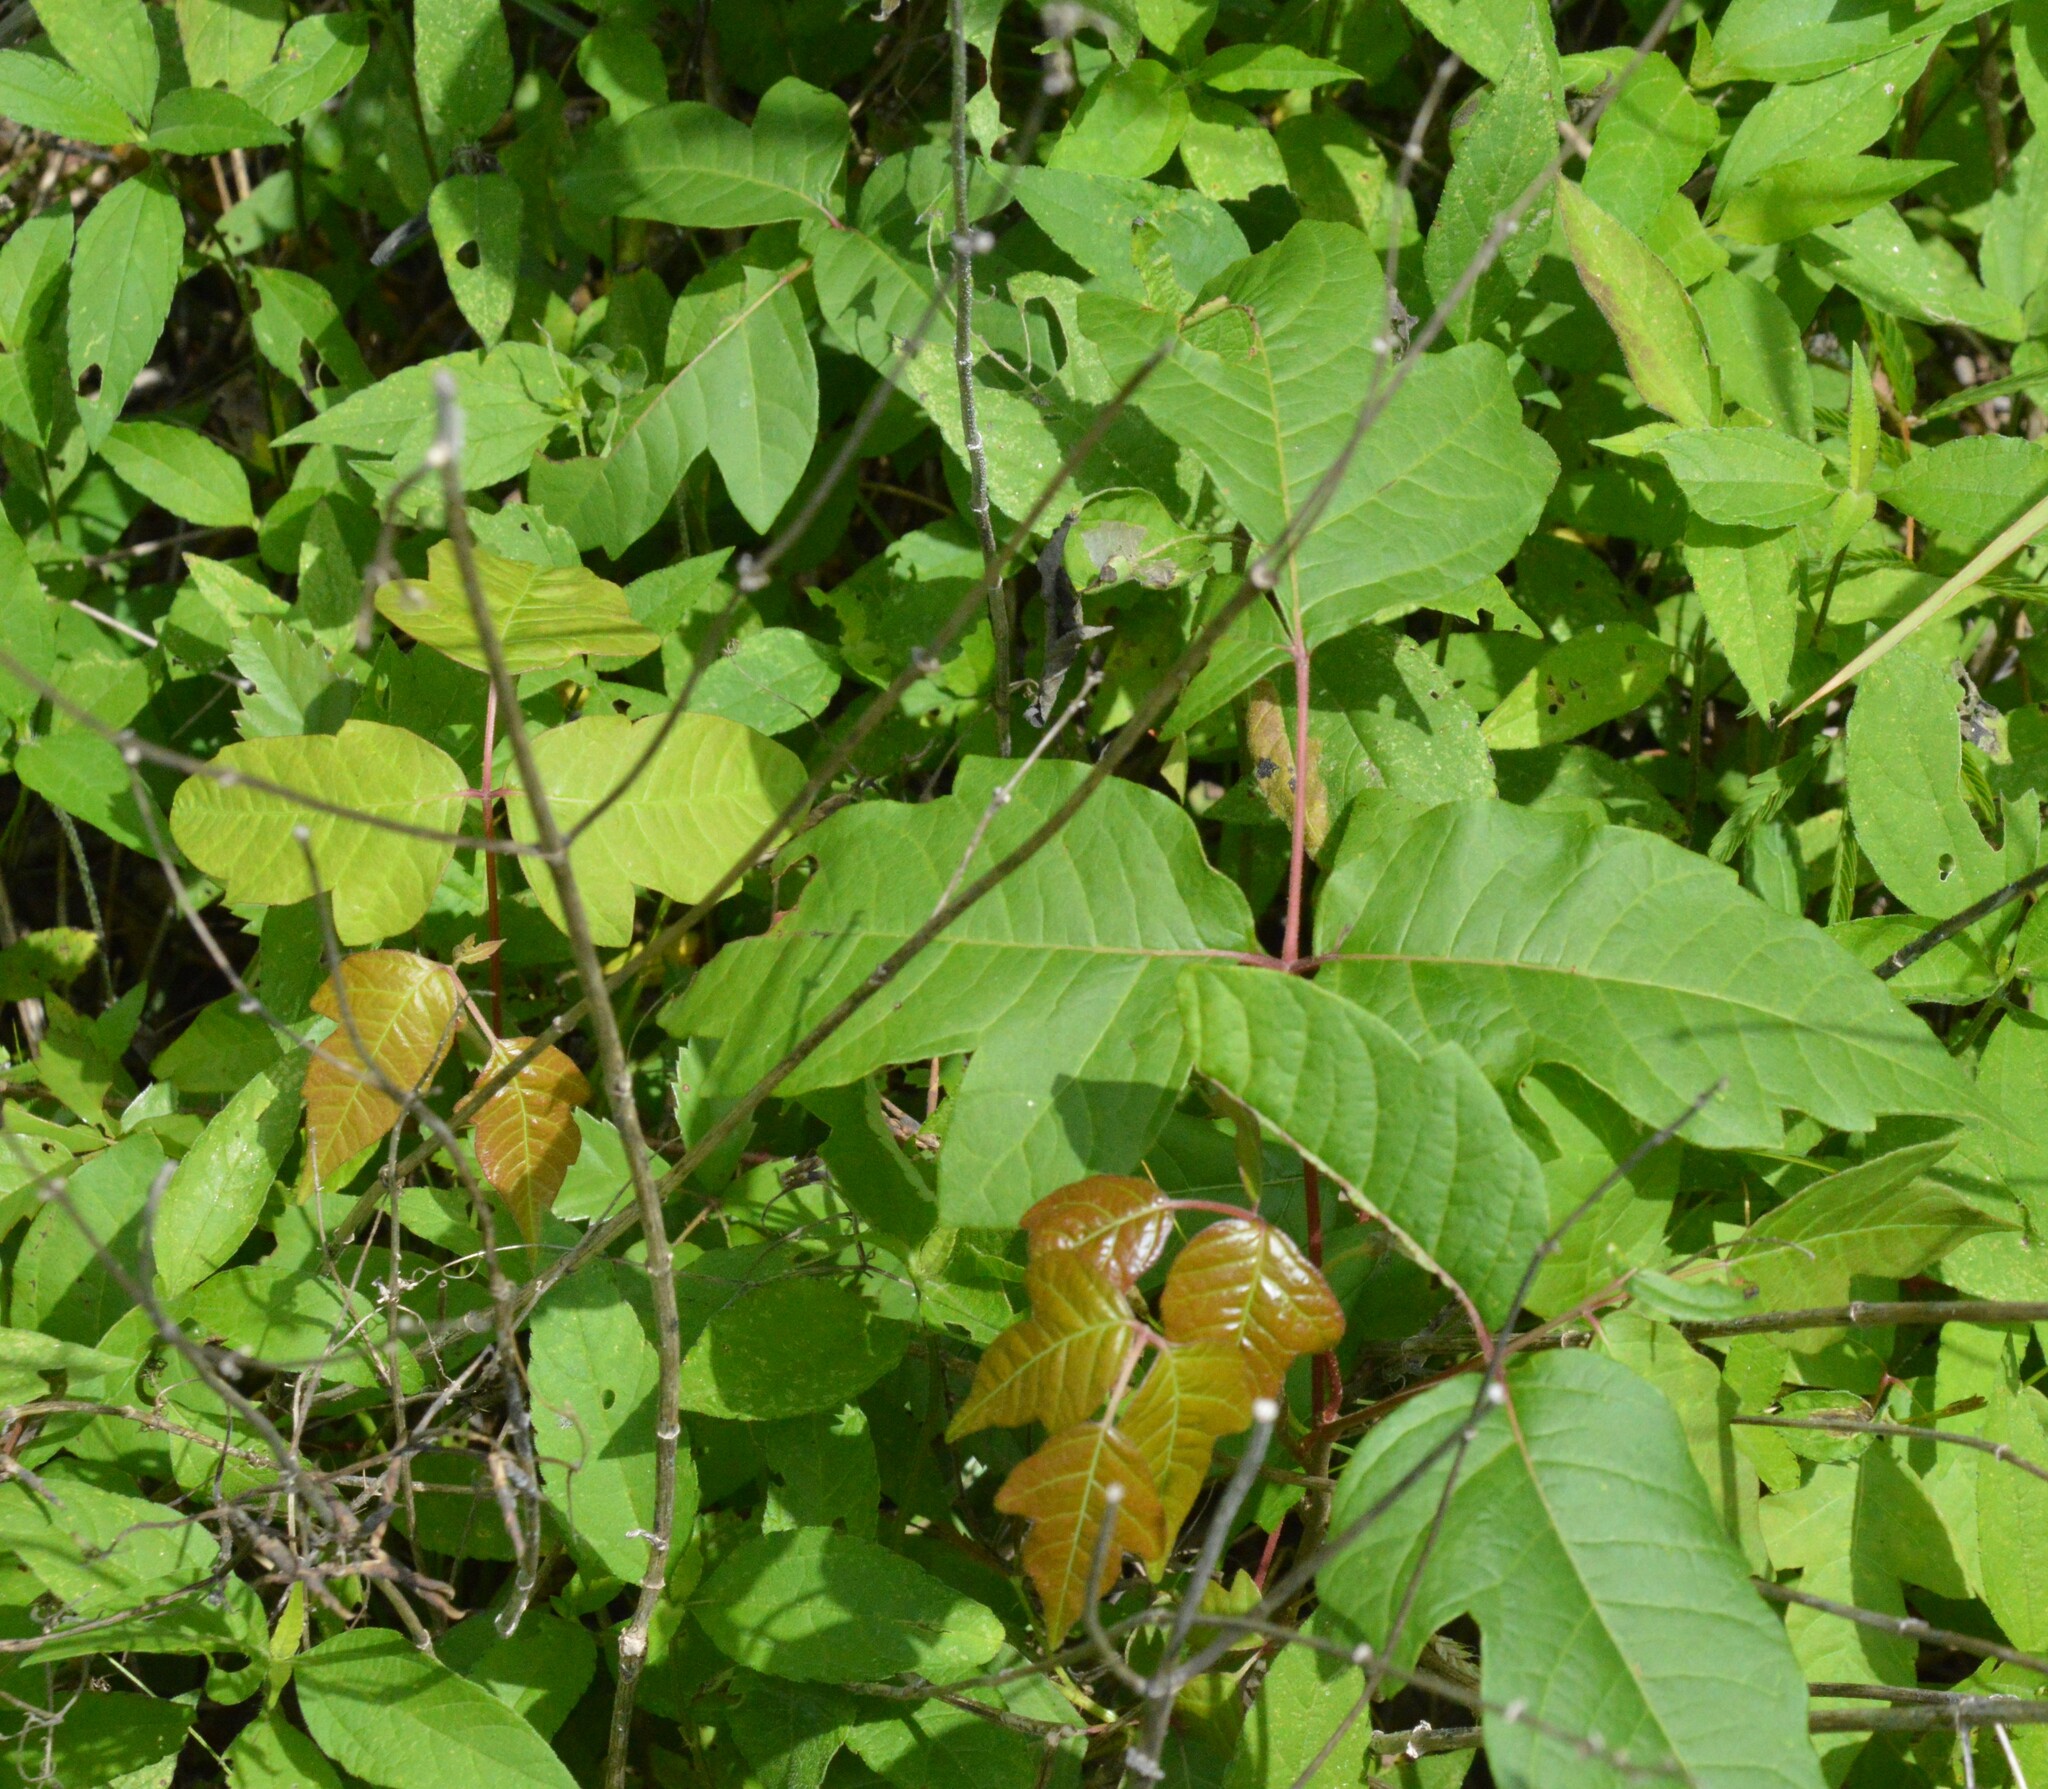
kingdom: Plantae
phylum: Tracheophyta
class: Magnoliopsida
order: Sapindales
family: Anacardiaceae
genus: Toxicodendron
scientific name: Toxicodendron radicans
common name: Poison ivy
